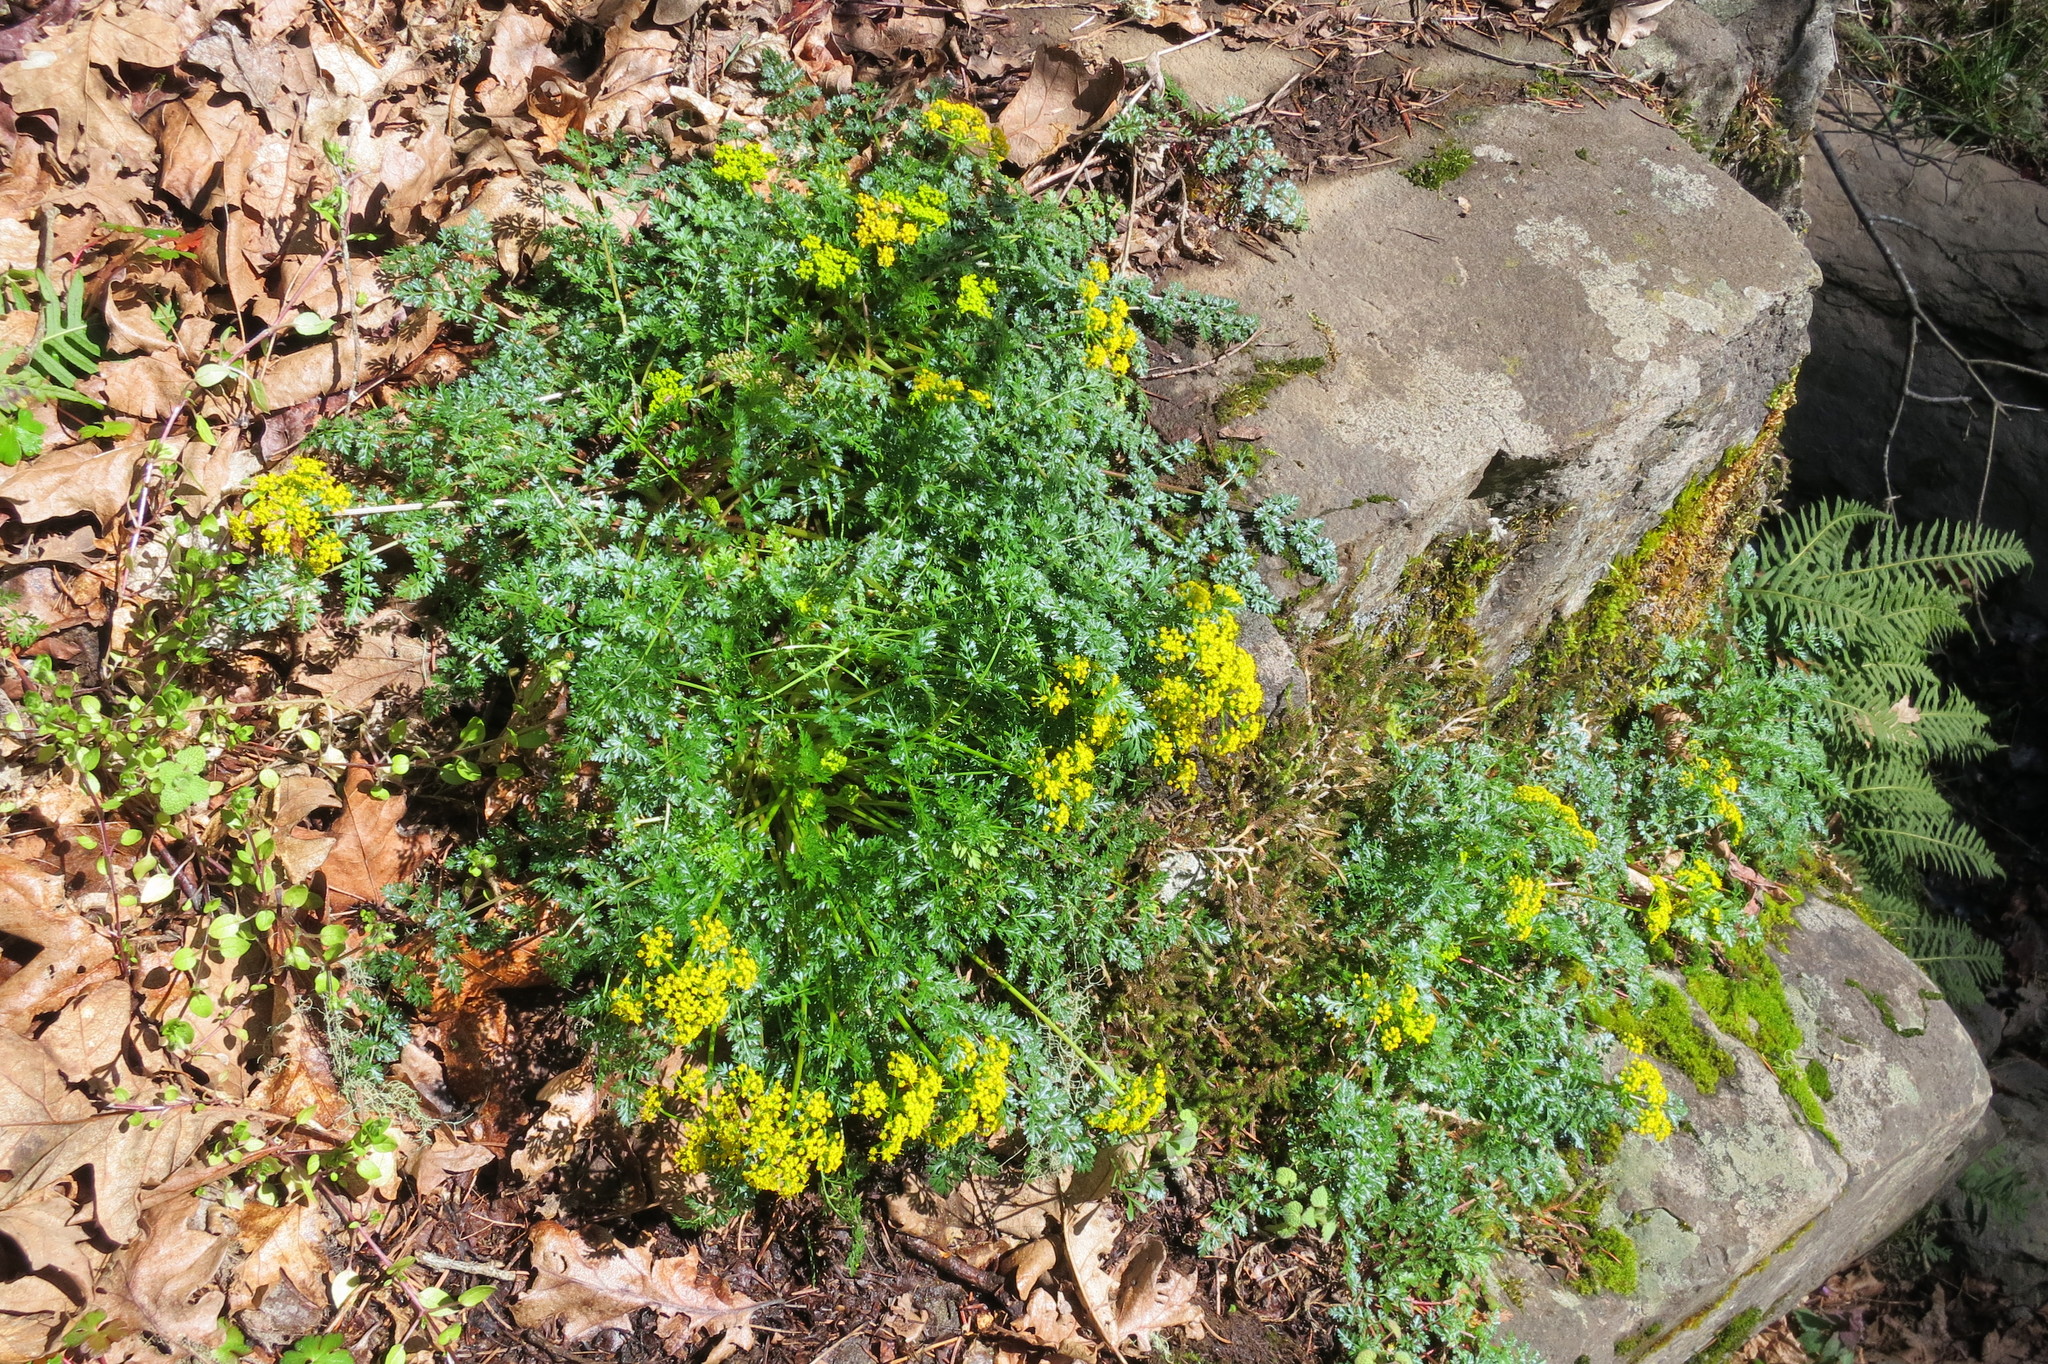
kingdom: Plantae
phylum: Tracheophyta
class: Magnoliopsida
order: Apiales
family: Apiaceae
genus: Lomatium
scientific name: Lomatium hallii
